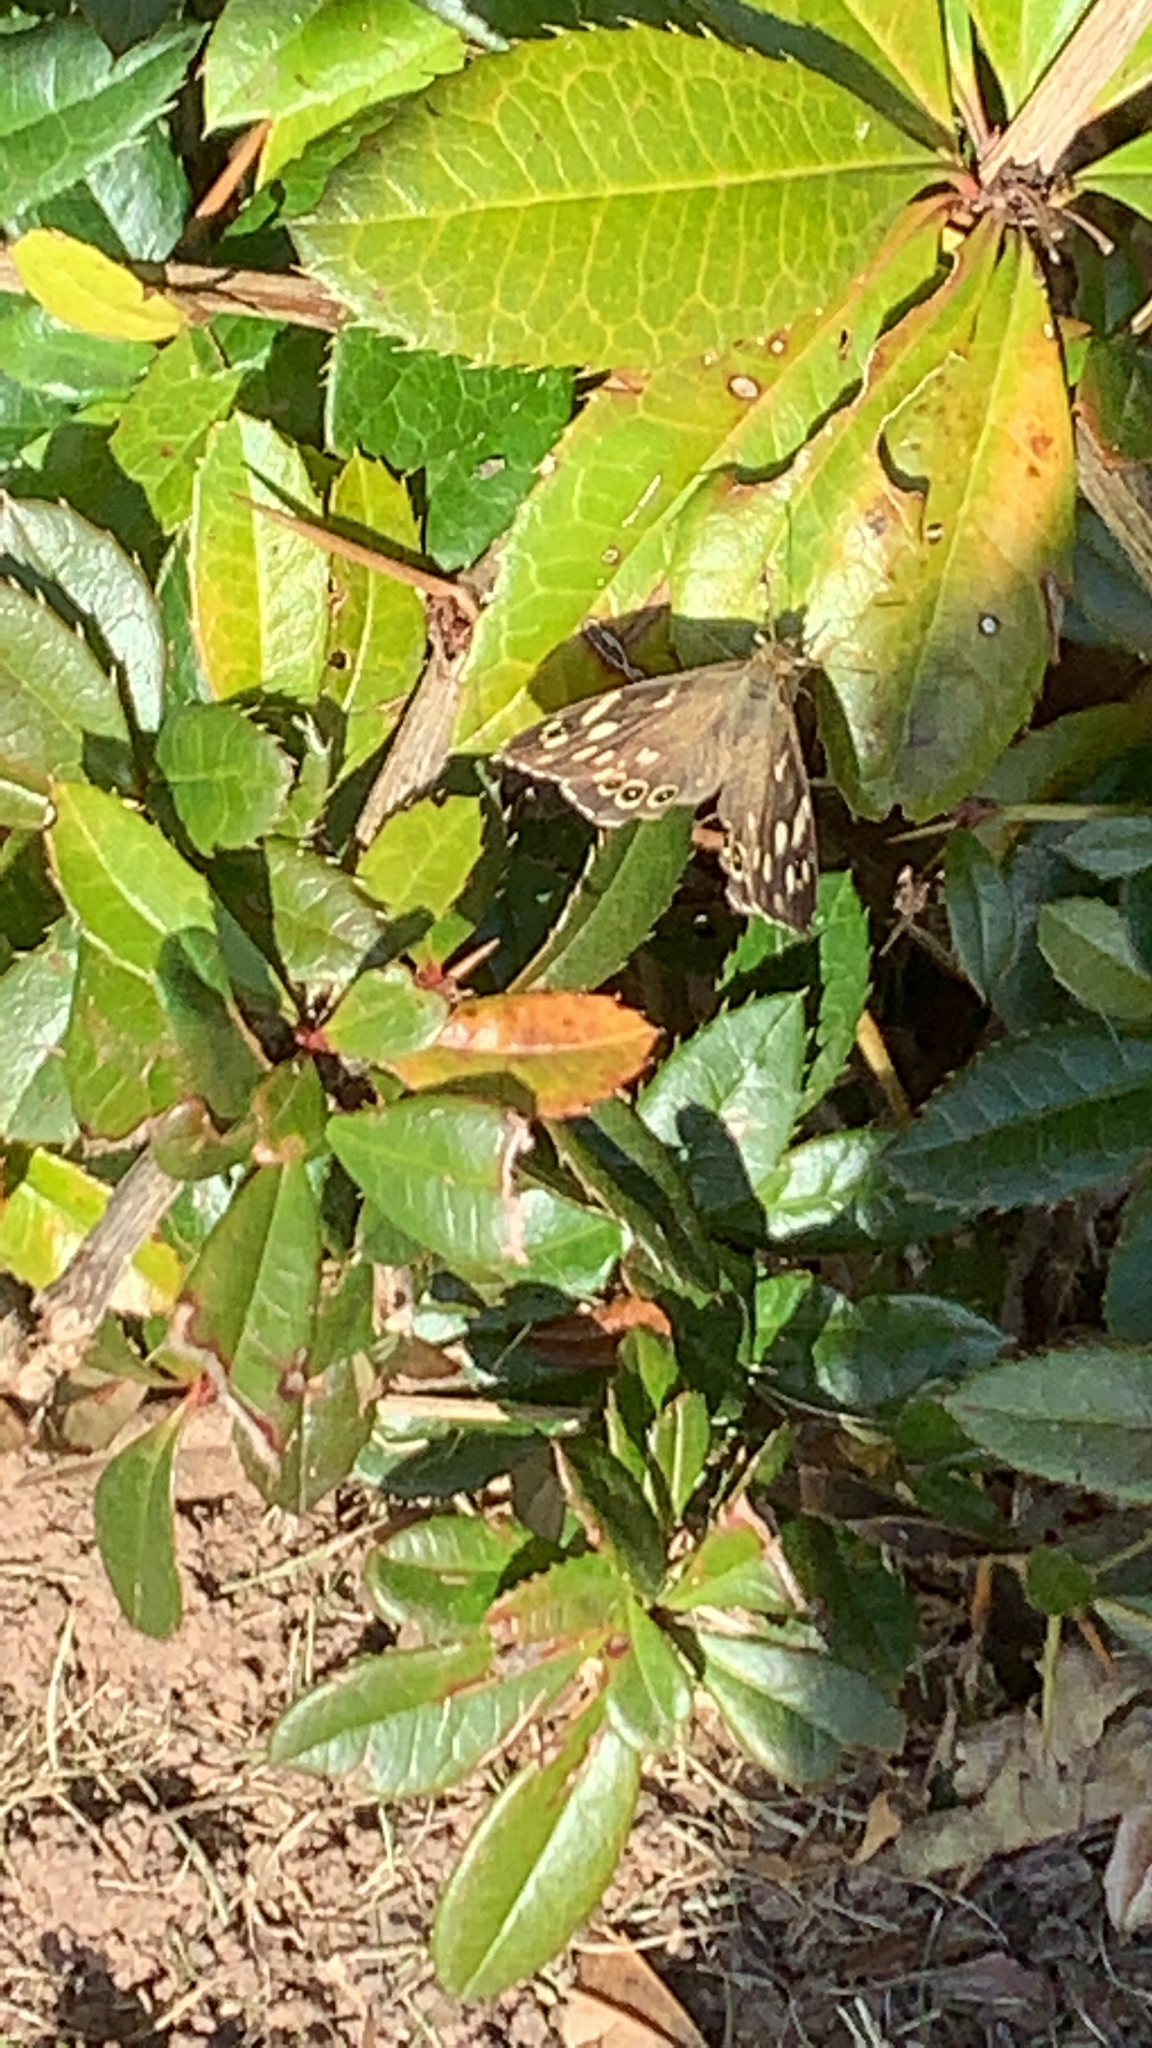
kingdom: Animalia
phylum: Arthropoda
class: Insecta
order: Lepidoptera
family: Nymphalidae
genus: Pararge
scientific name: Pararge aegeria
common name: Speckled wood
